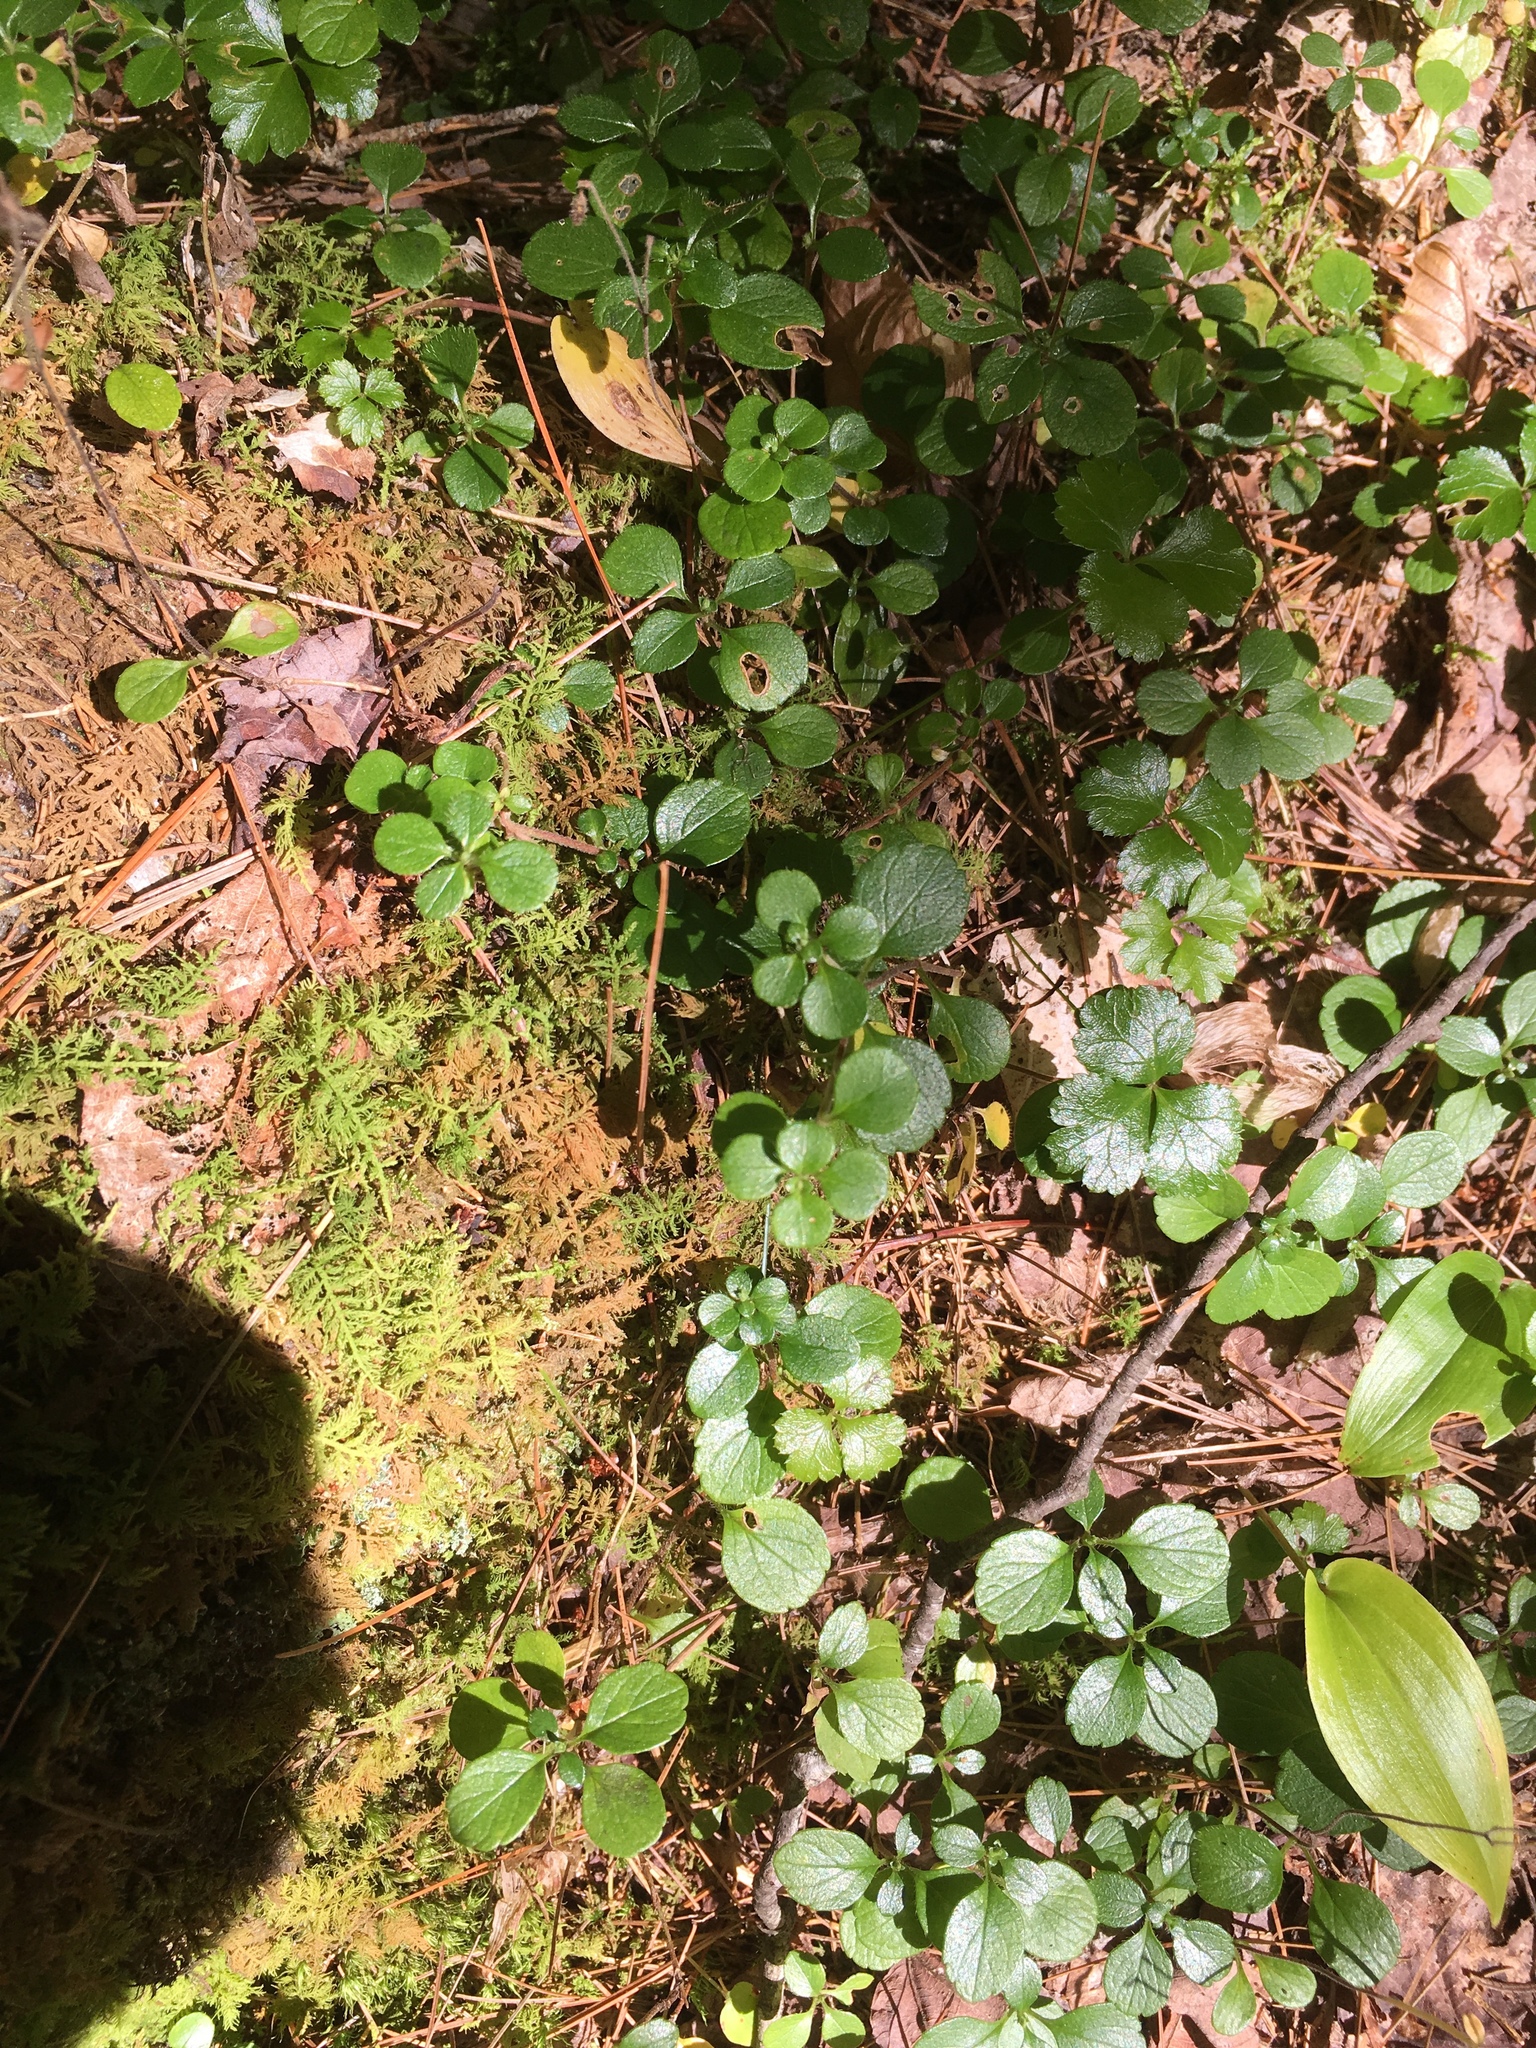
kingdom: Plantae
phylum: Tracheophyta
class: Magnoliopsida
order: Dipsacales
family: Caprifoliaceae
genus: Linnaea
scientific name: Linnaea borealis
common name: Twinflower
